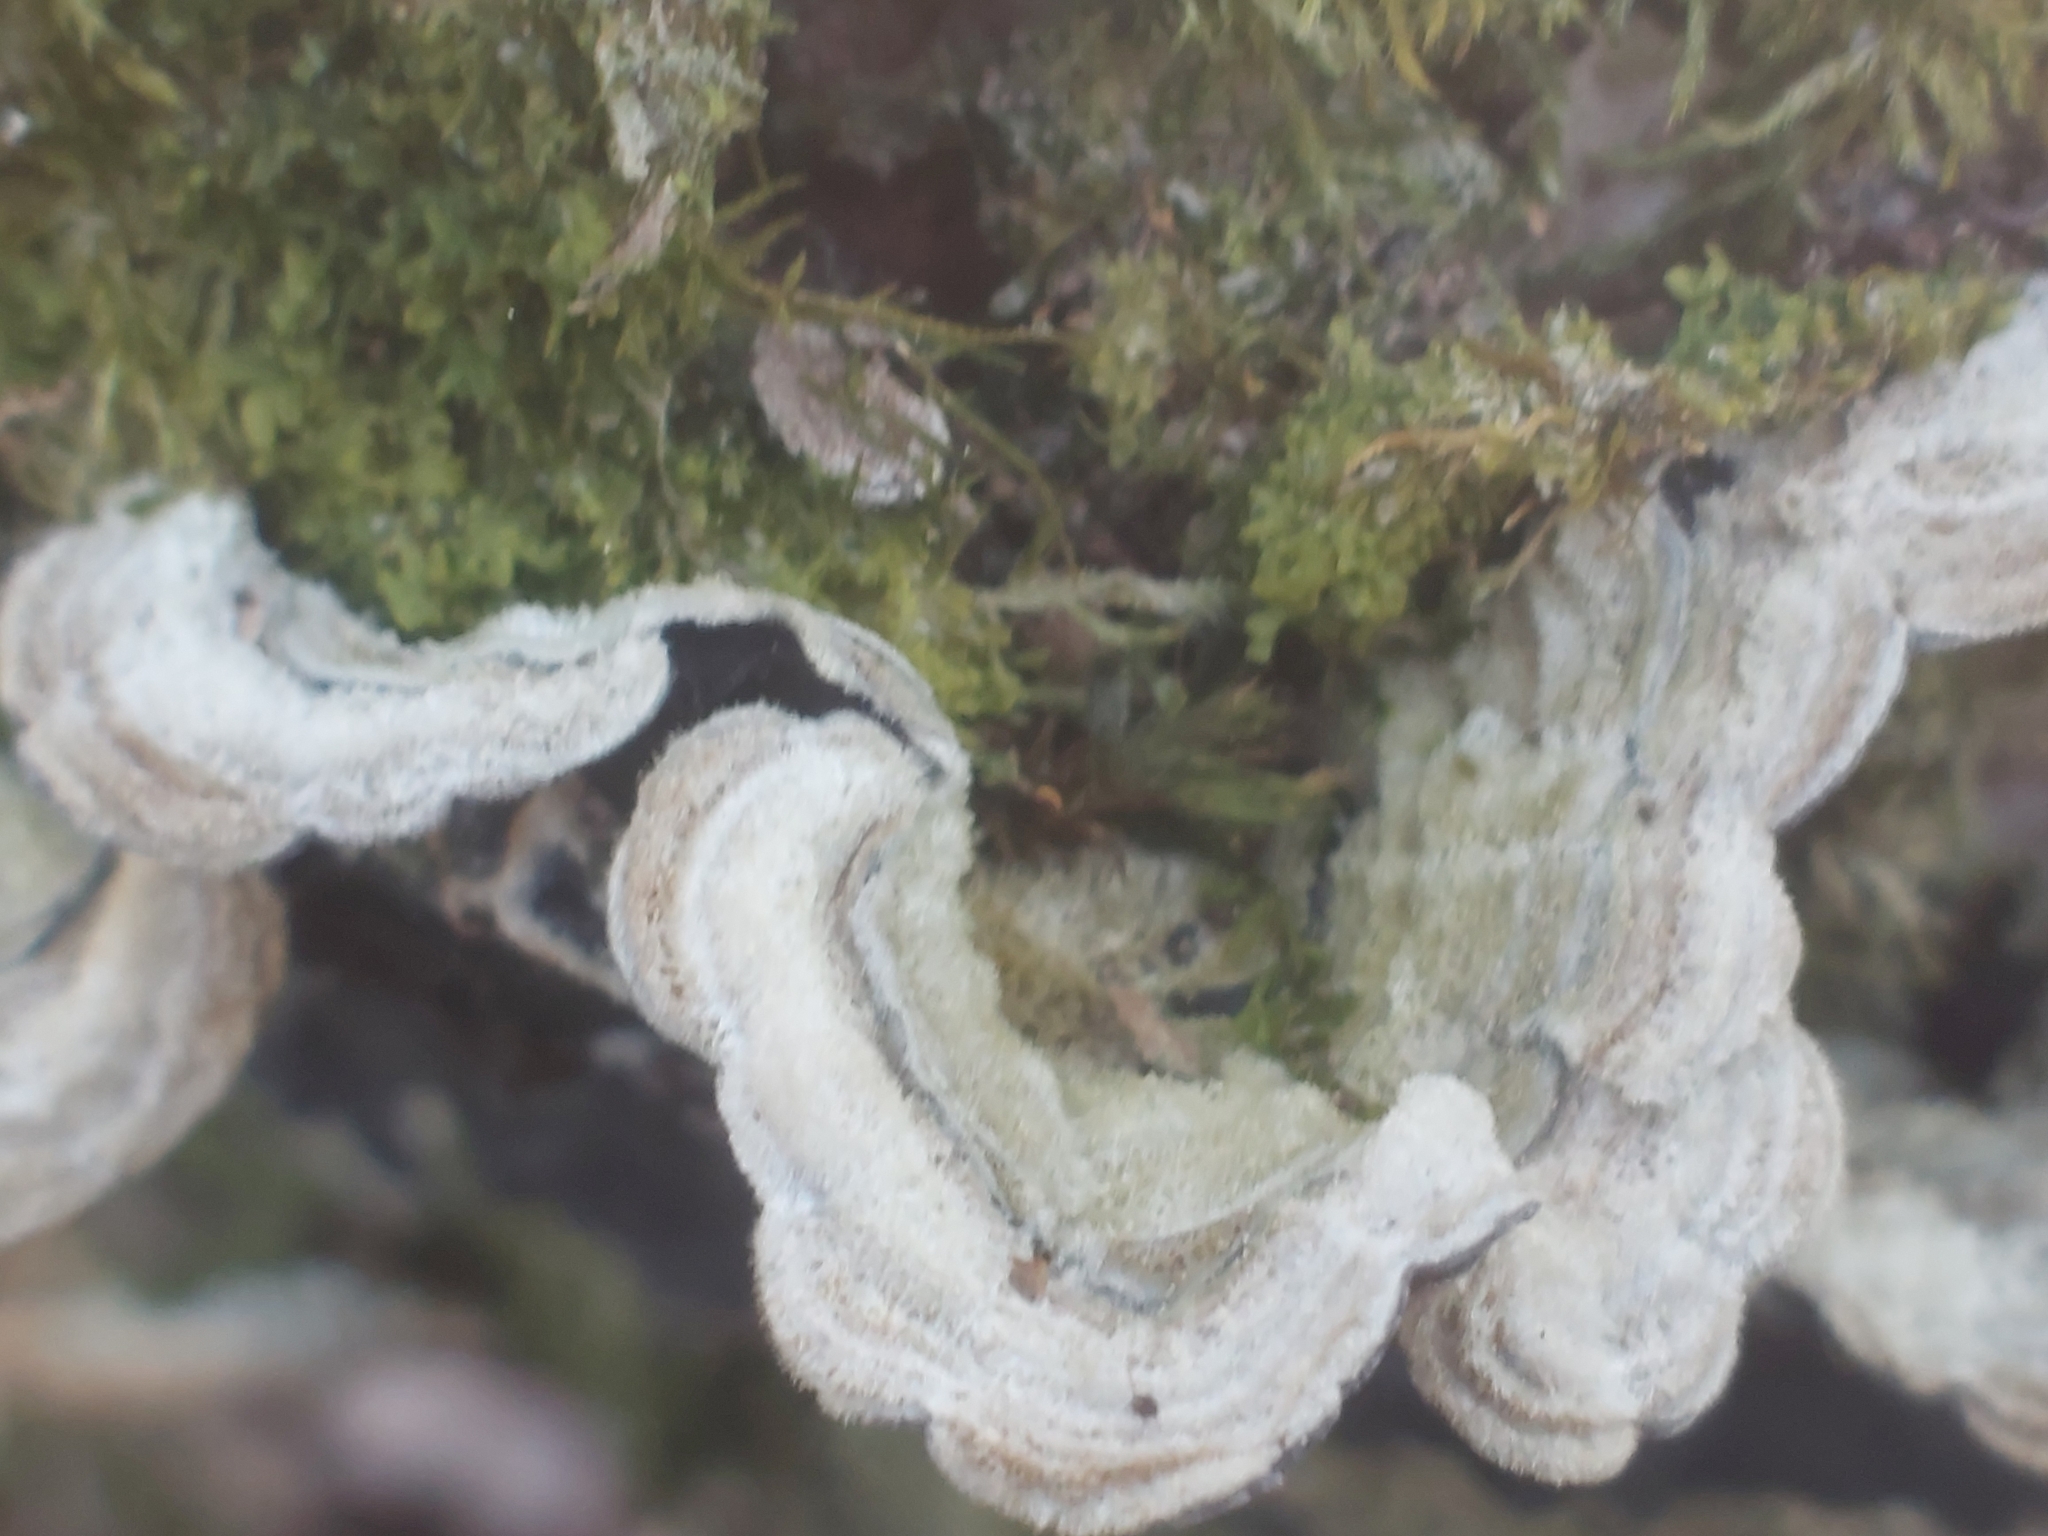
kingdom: Fungi
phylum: Basidiomycota
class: Agaricomycetes
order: Auriculariales
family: Auriculariaceae
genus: Auricularia
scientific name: Auricularia mesenterica
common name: Tripe fungus
